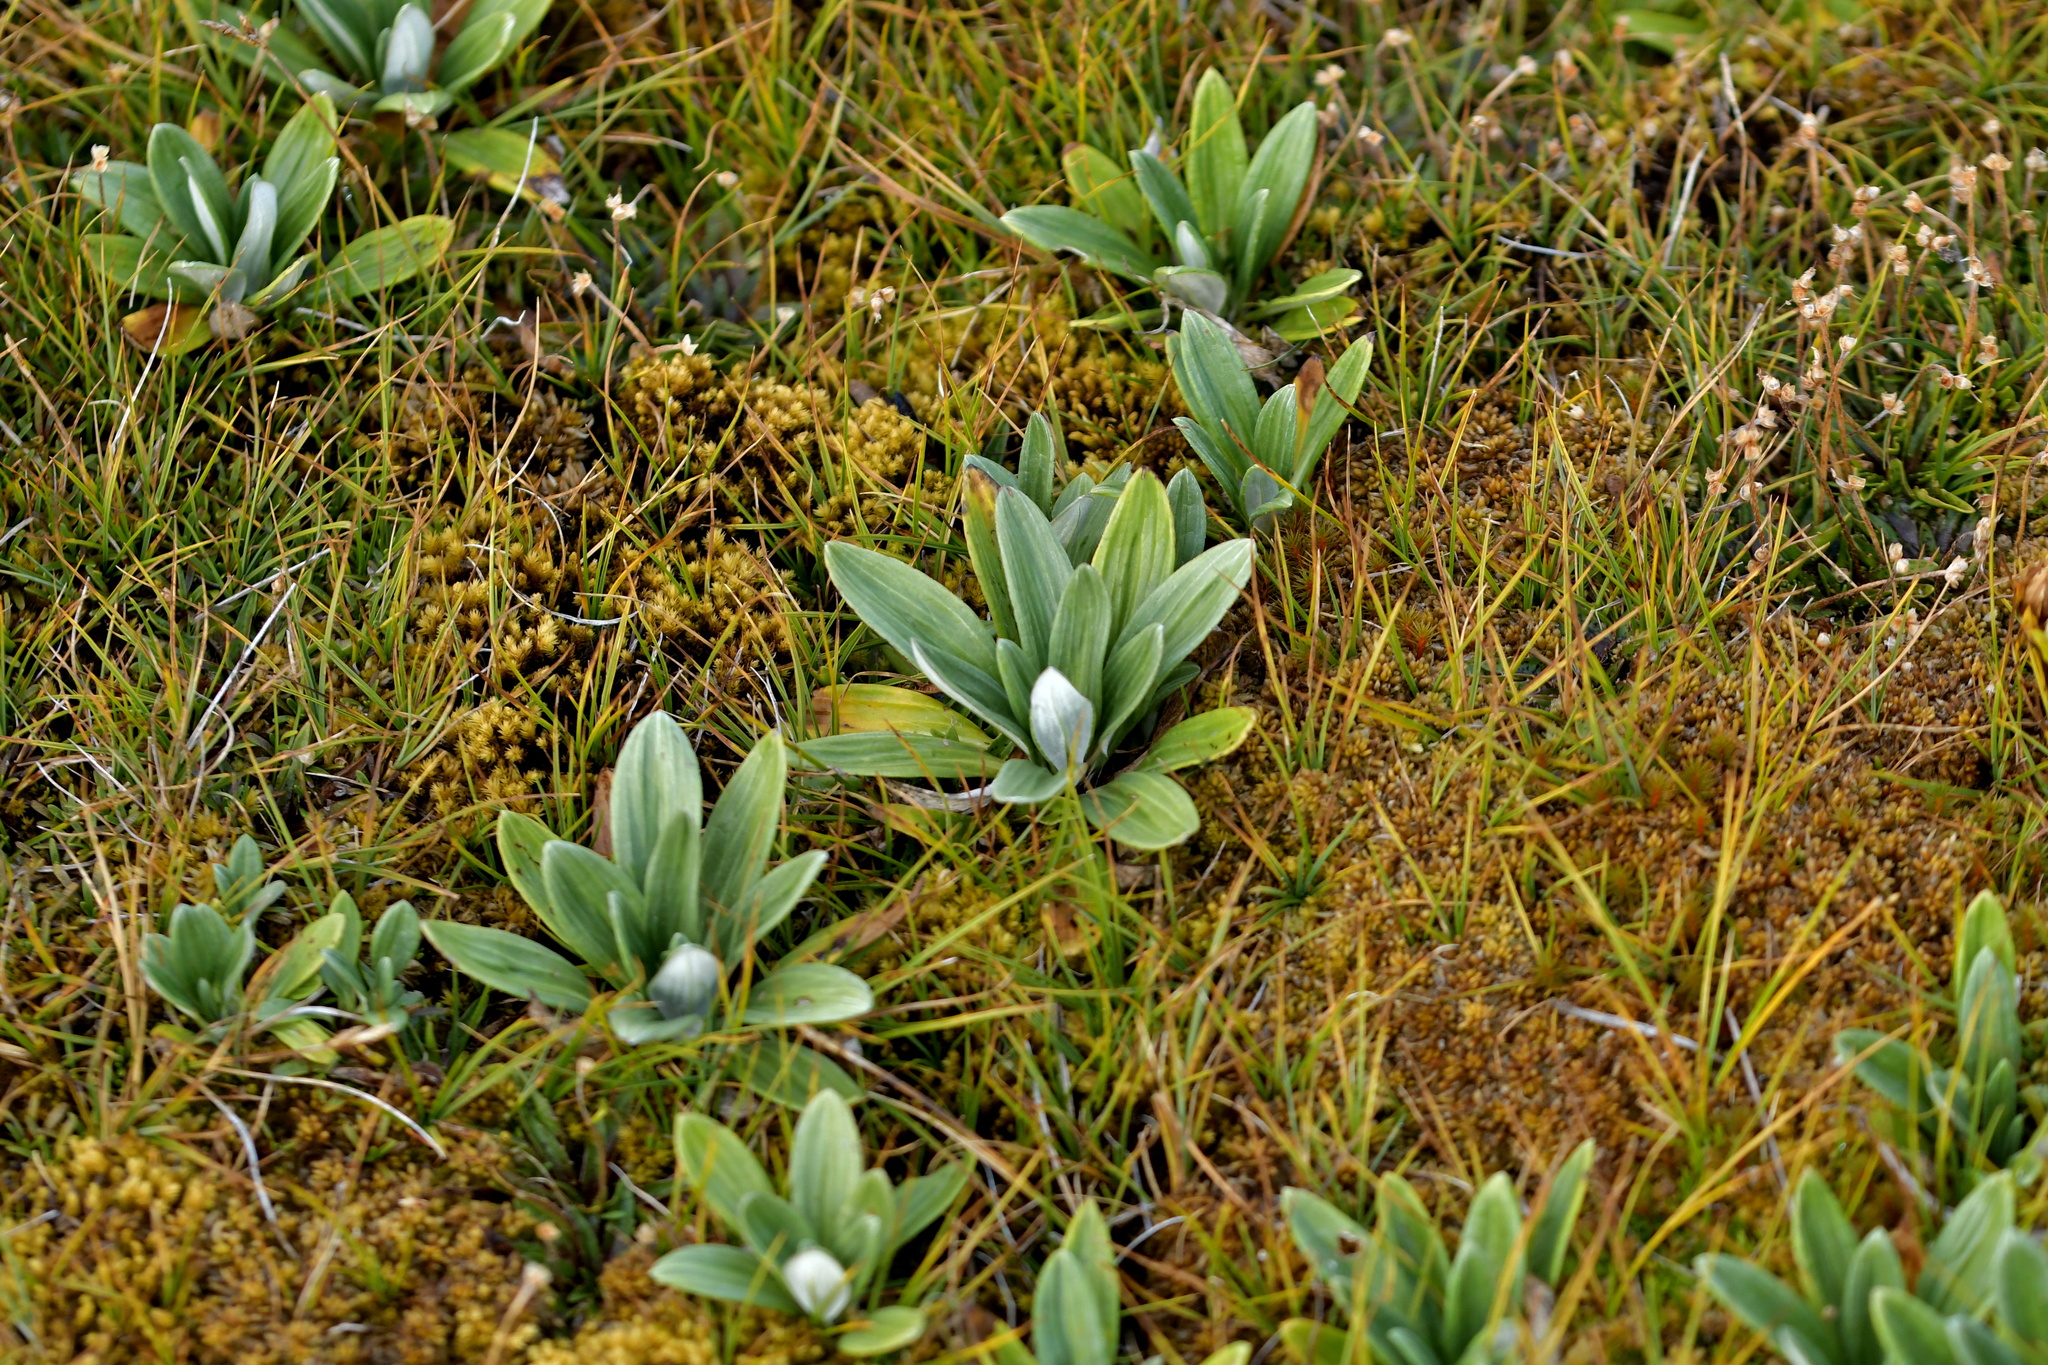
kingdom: Plantae
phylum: Tracheophyta
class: Magnoliopsida
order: Asterales
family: Asteraceae
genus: Celmisia
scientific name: Celmisia haastii
